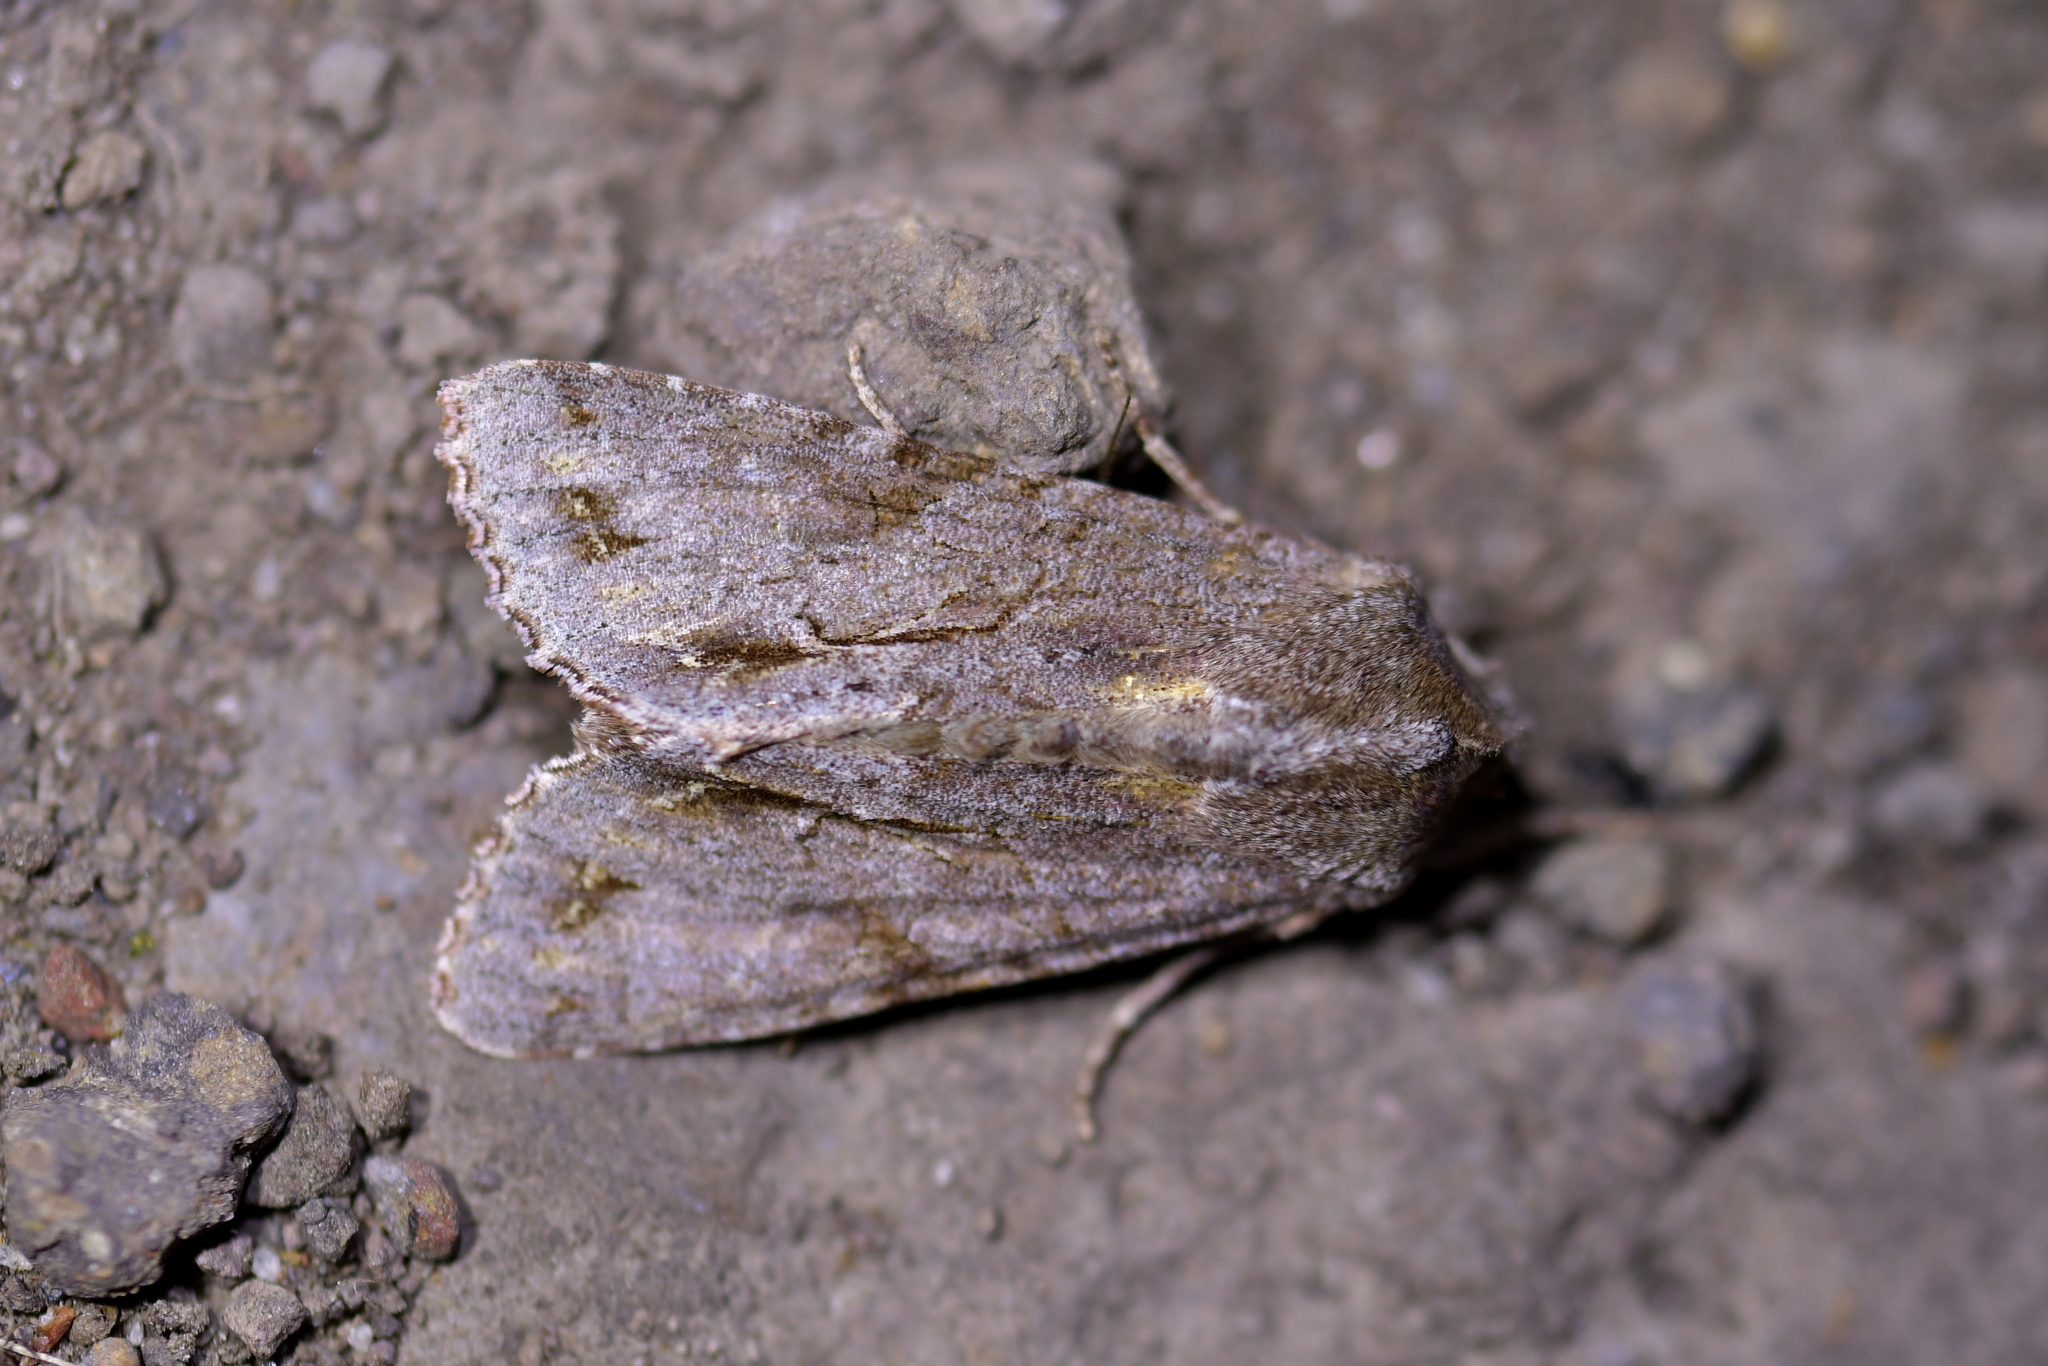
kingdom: Animalia
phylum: Arthropoda
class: Insecta
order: Lepidoptera
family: Noctuidae
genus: Ichneutica
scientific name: Ichneutica
